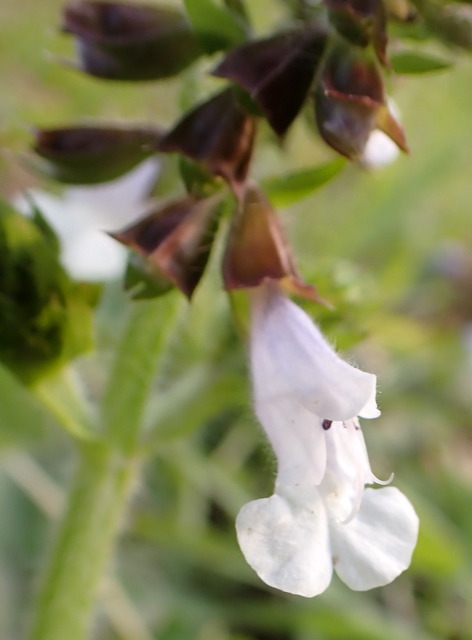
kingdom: Plantae
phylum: Tracheophyta
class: Magnoliopsida
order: Lamiales
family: Lamiaceae
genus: Salvia
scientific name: Salvia lyrata
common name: Cancerweed
